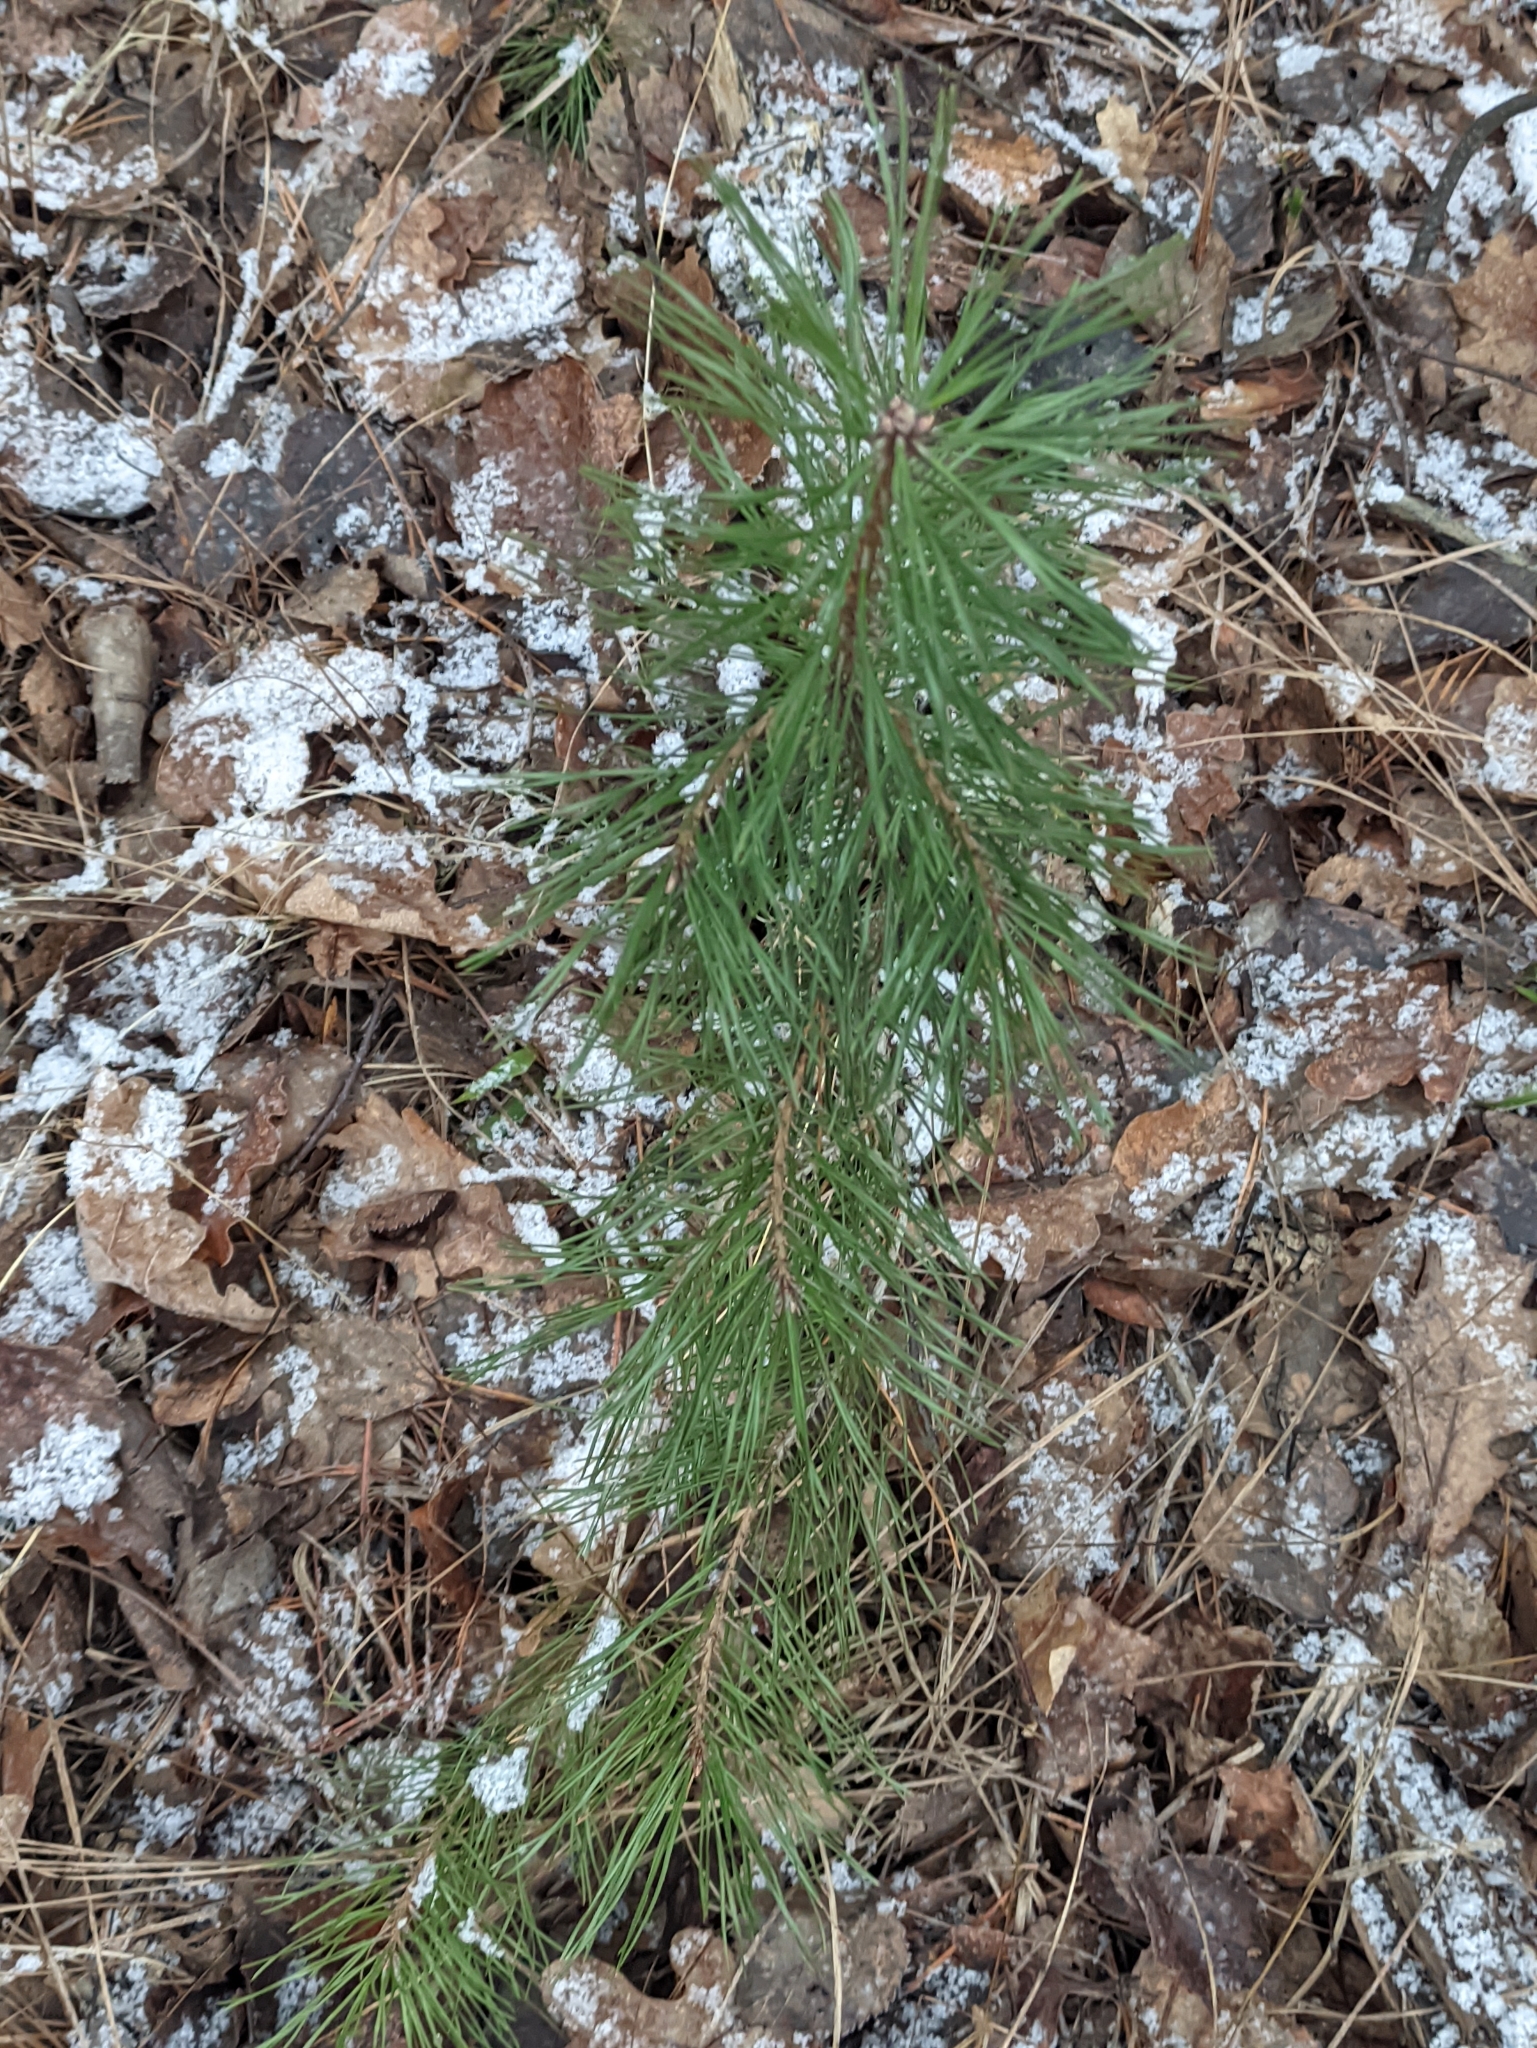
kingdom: Plantae
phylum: Tracheophyta
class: Pinopsida
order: Pinales
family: Pinaceae
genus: Pinus
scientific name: Pinus sylvestris
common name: Scots pine
